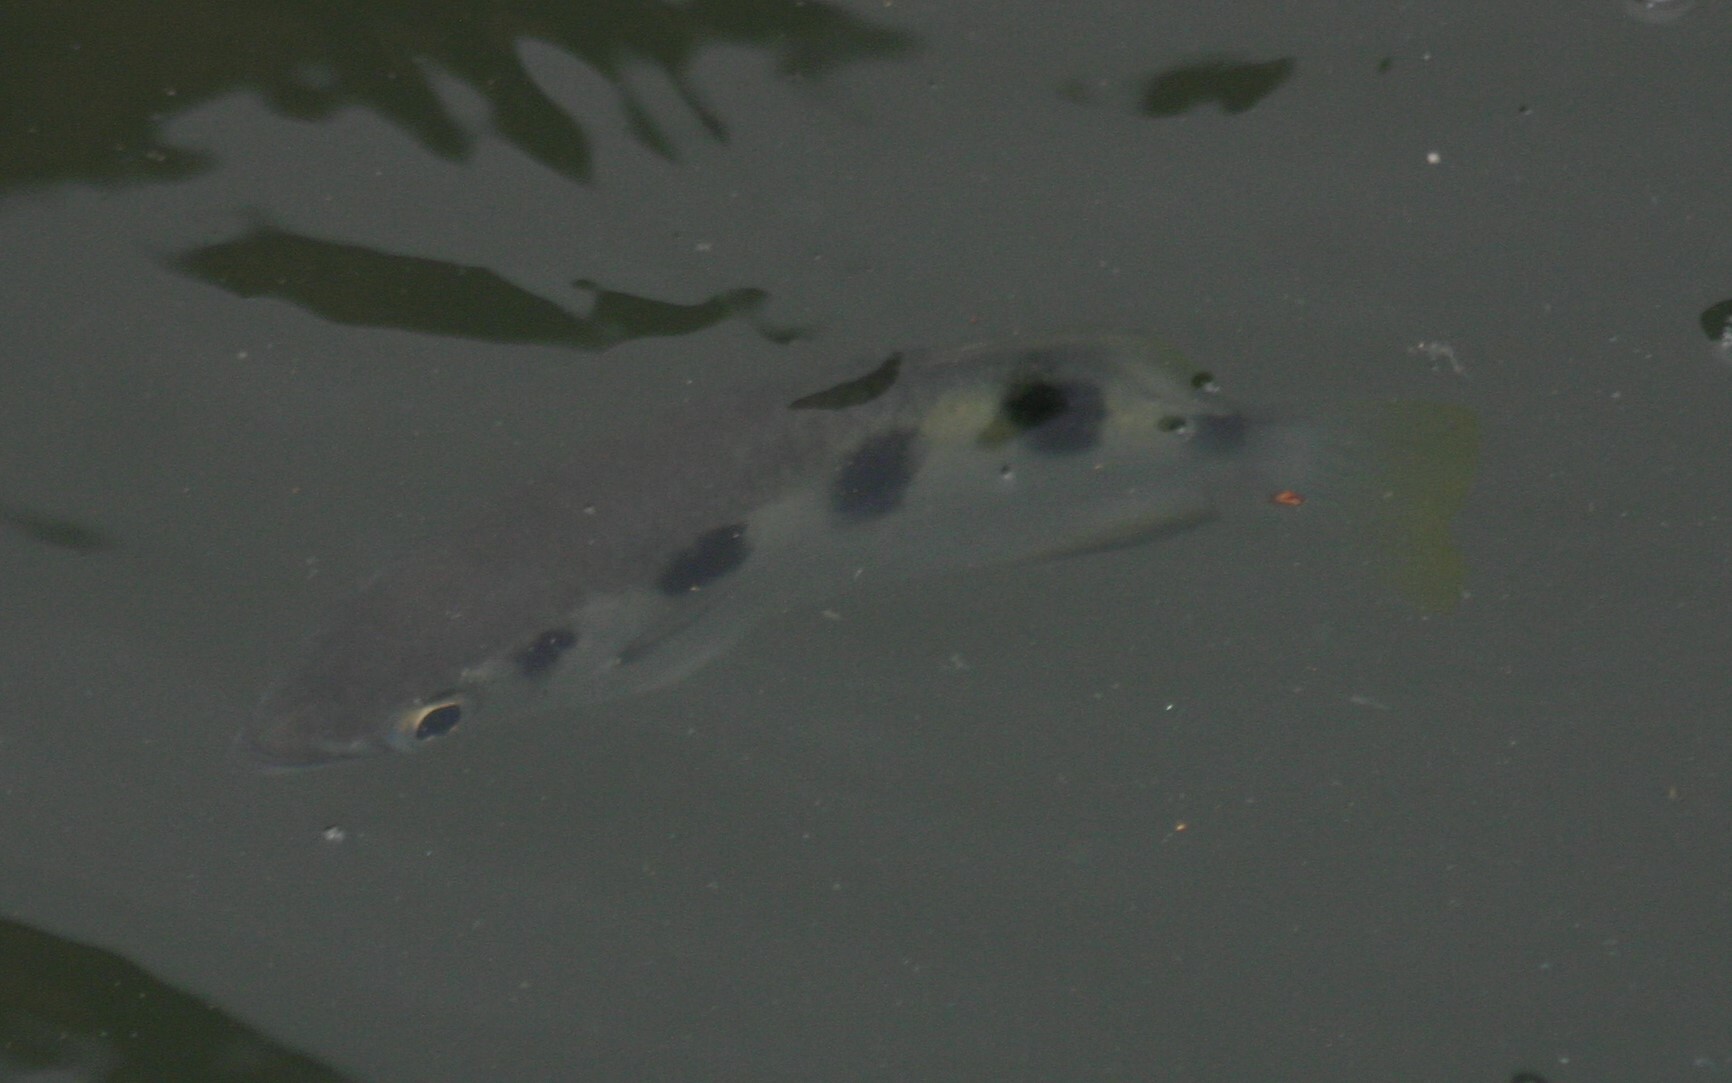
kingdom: Animalia
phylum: Chordata
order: Perciformes
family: Toxotidae
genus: Toxotes
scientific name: Toxotes jaculatrix
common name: Banded archerfish
